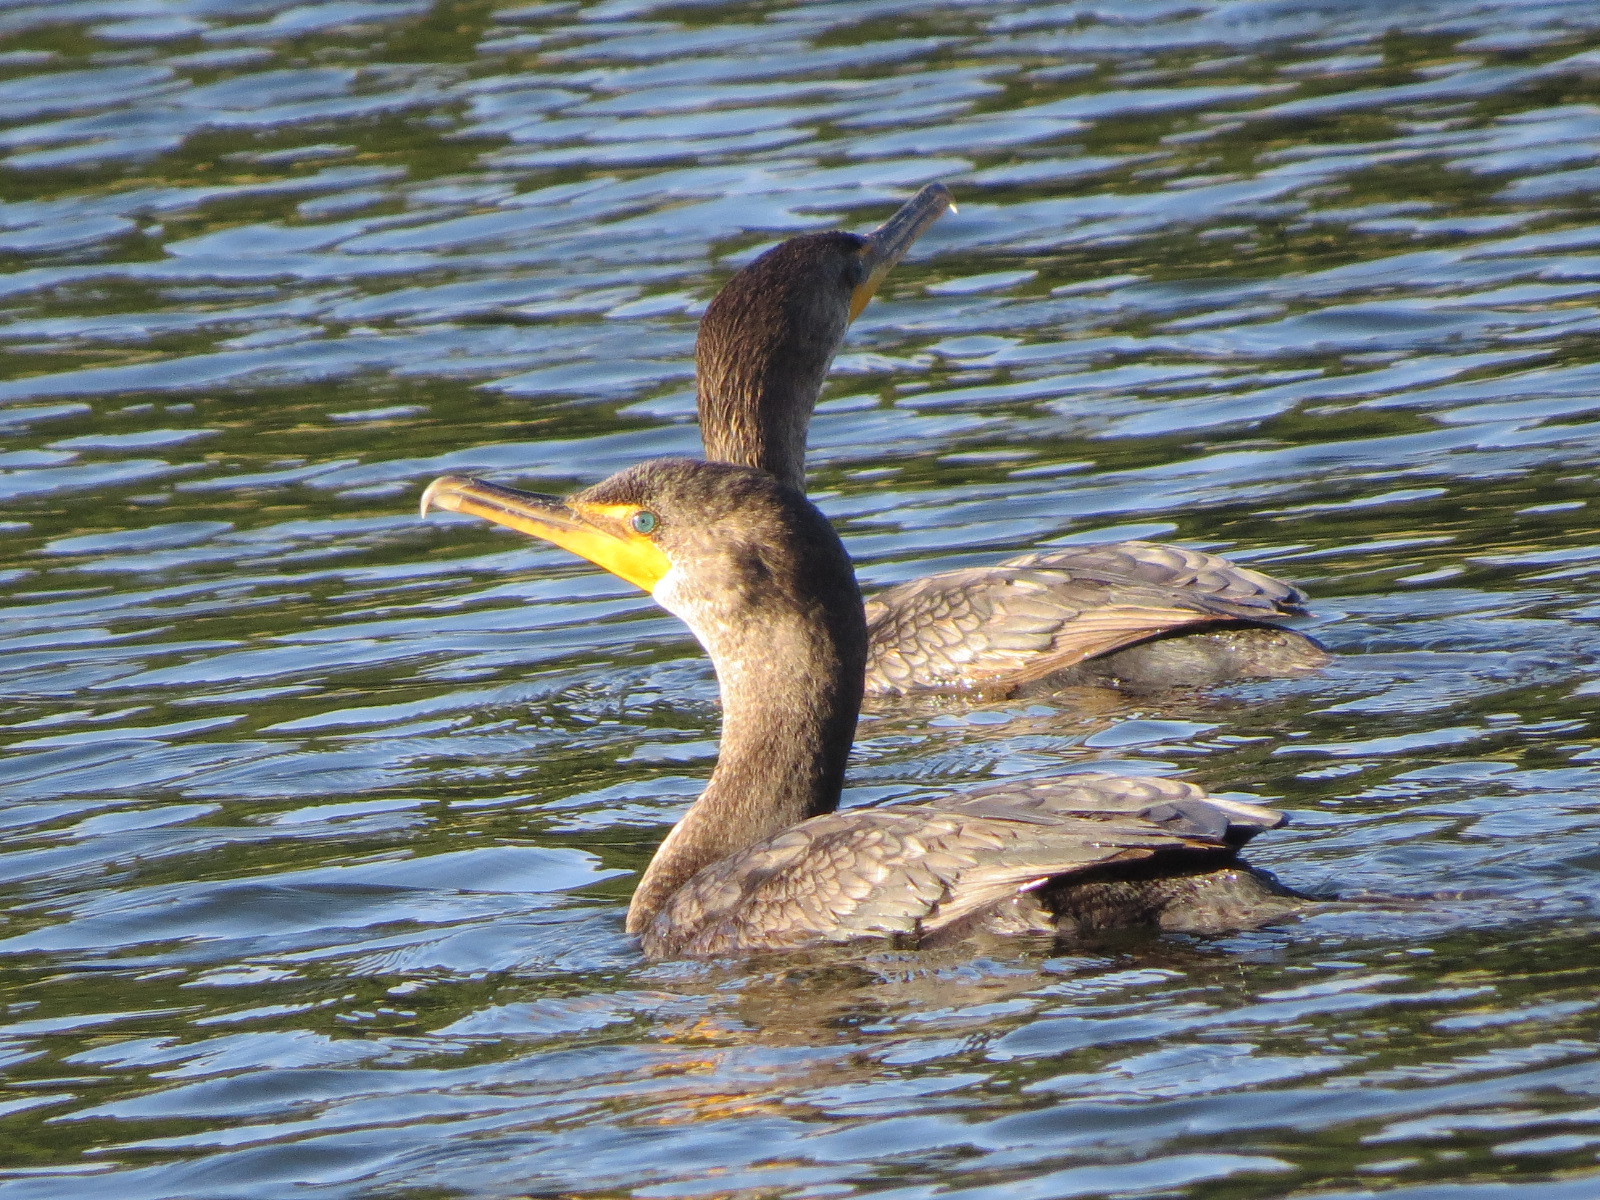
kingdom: Animalia
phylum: Chordata
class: Aves
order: Suliformes
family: Phalacrocoracidae
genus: Phalacrocorax
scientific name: Phalacrocorax auritus
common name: Double-crested cormorant
